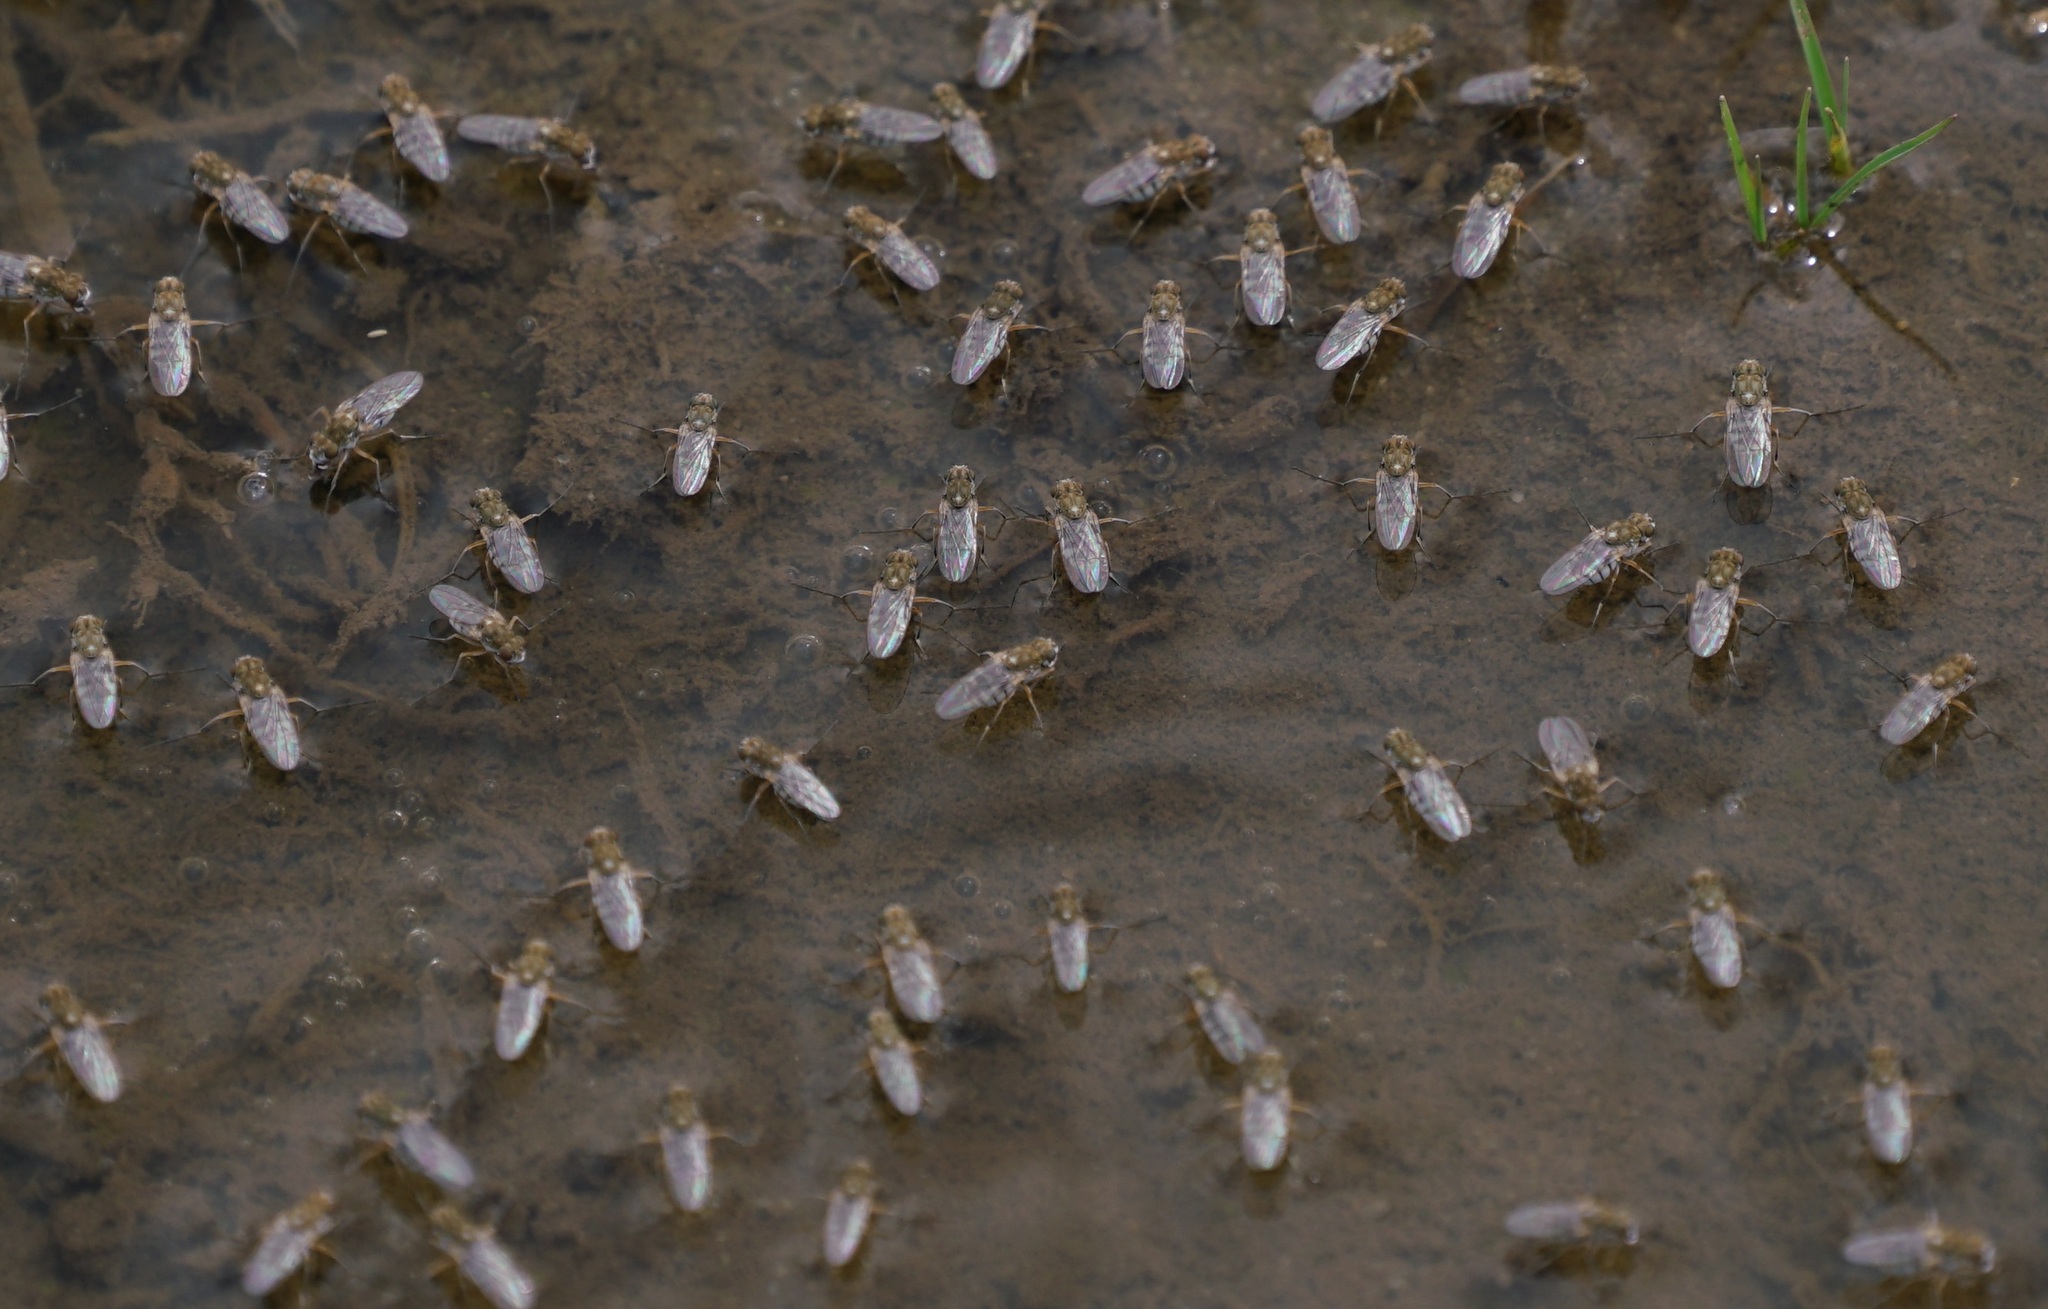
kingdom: Animalia
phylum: Arthropoda
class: Insecta
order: Diptera
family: Ephydridae
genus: Brachydeutera
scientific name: Brachydeutera sydneyensis
